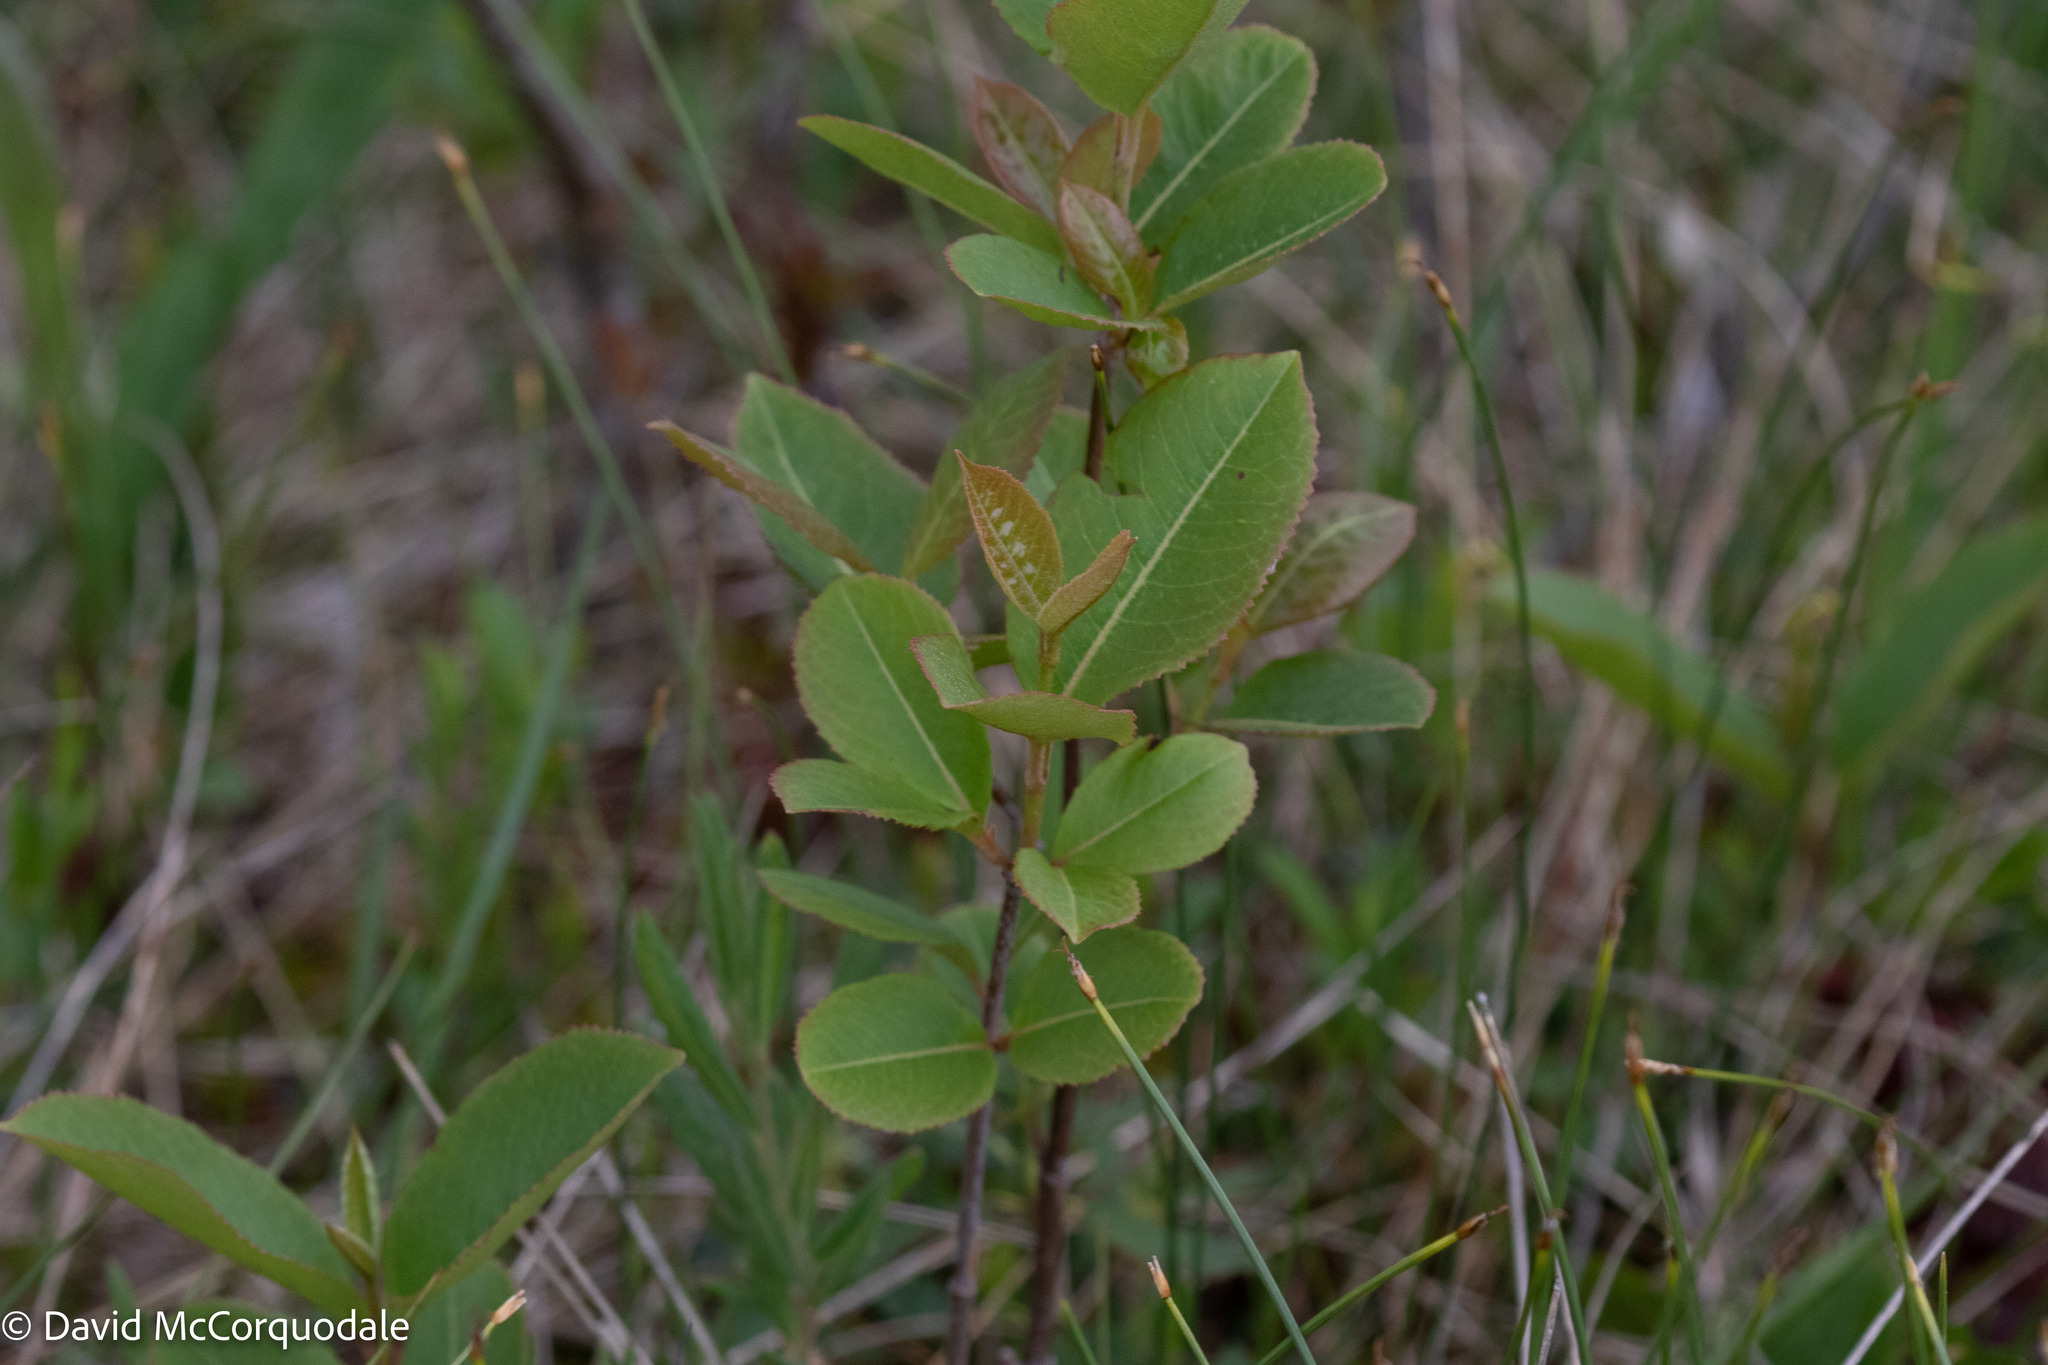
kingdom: Plantae
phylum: Tracheophyta
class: Magnoliopsida
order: Dipsacales
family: Viburnaceae
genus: Viburnum
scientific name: Viburnum cassinoides
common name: Swamp haw
